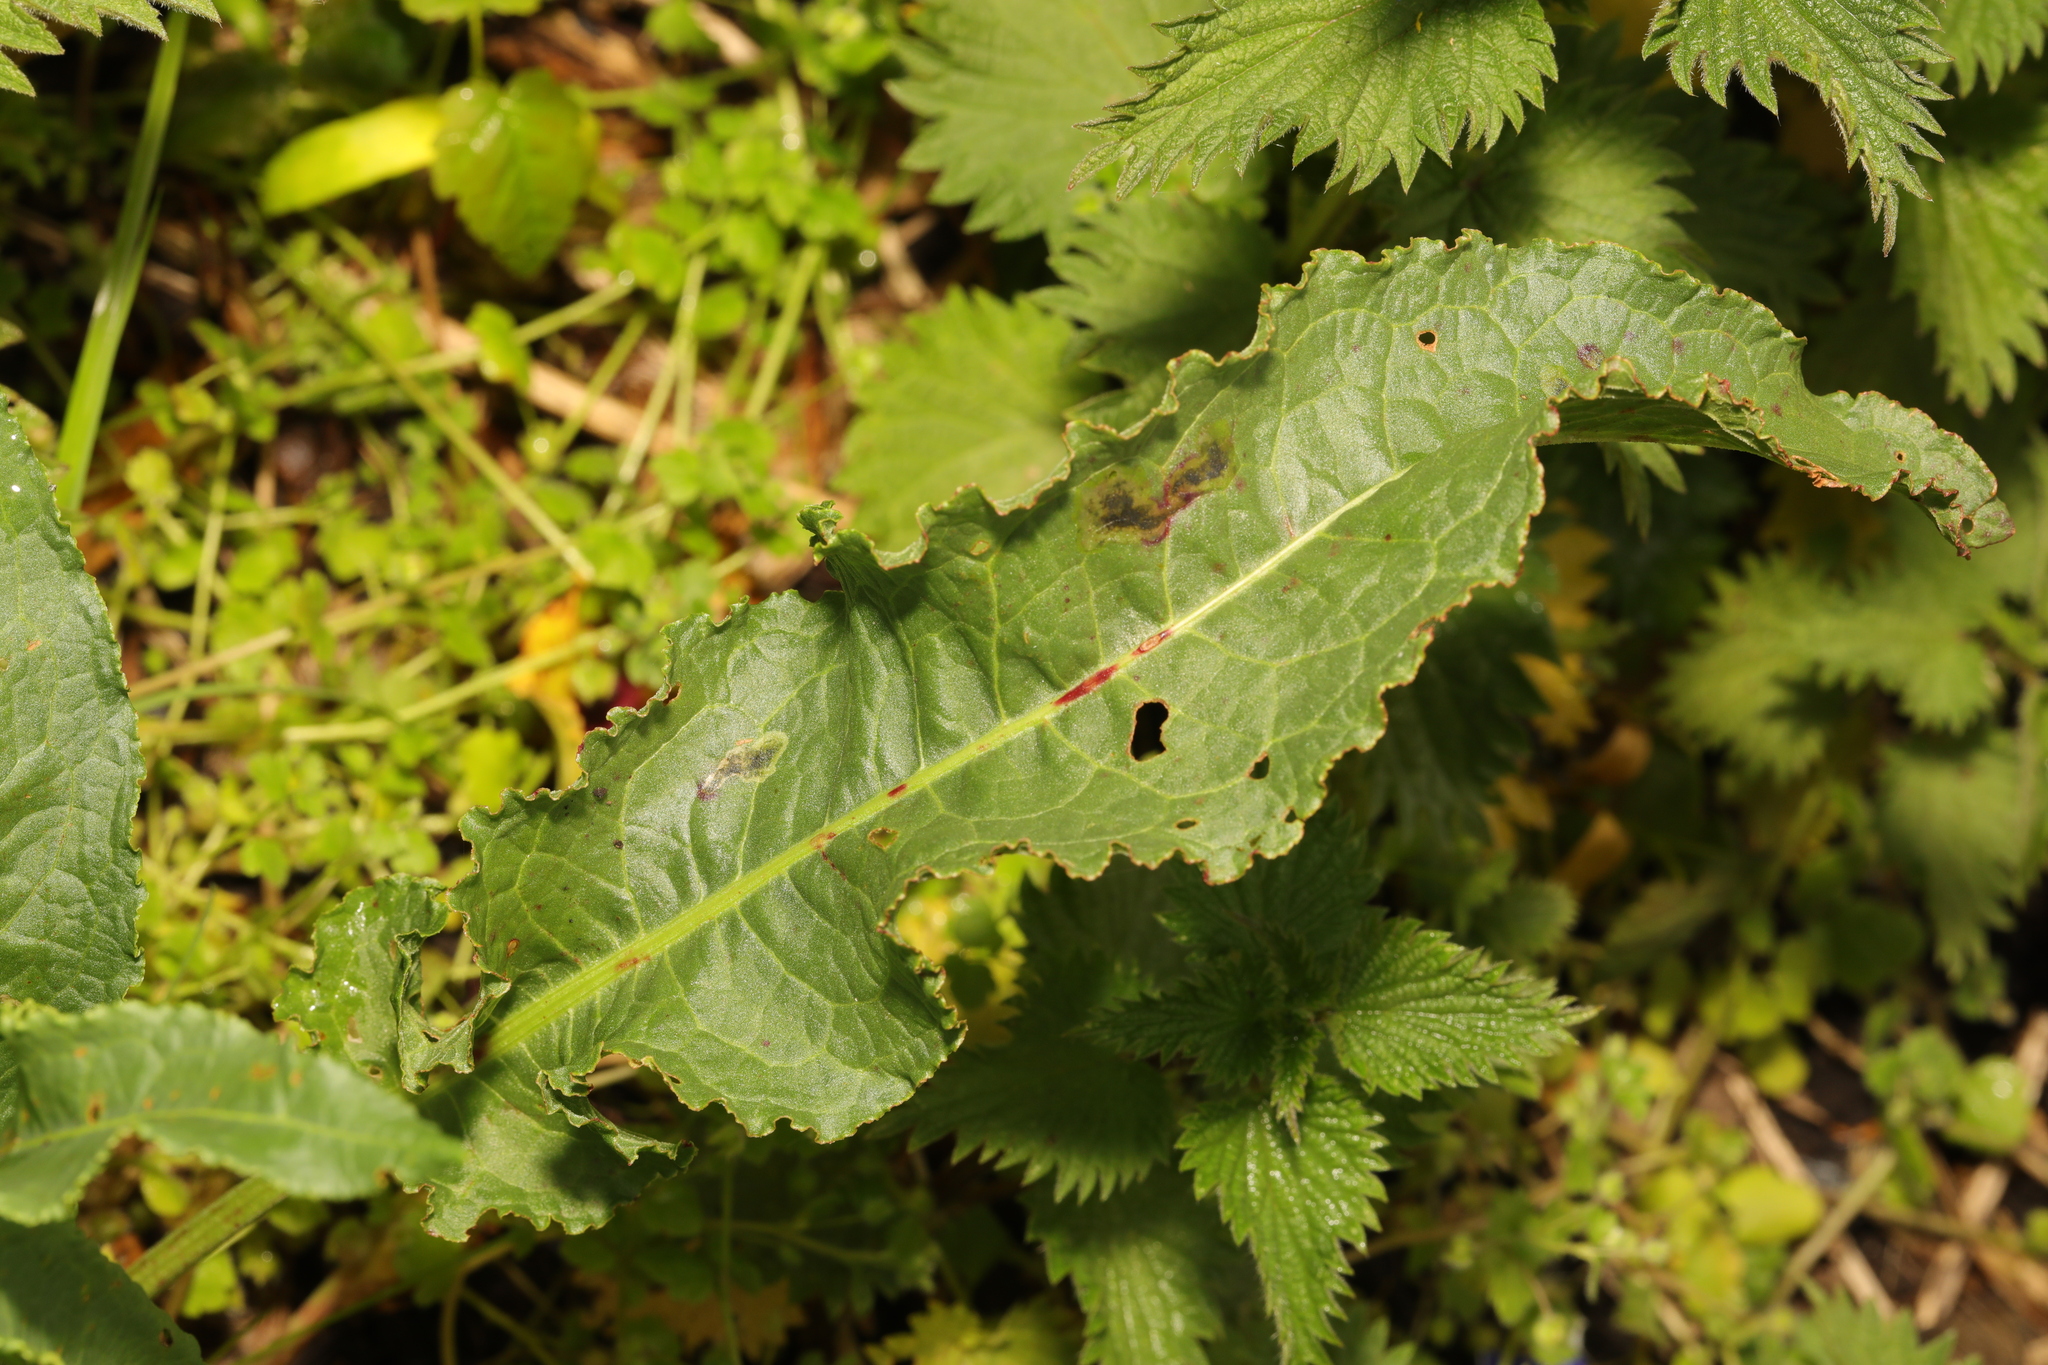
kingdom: Plantae
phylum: Tracheophyta
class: Magnoliopsida
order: Caryophyllales
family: Polygonaceae
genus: Rumex
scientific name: Rumex crispus
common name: Curled dock
